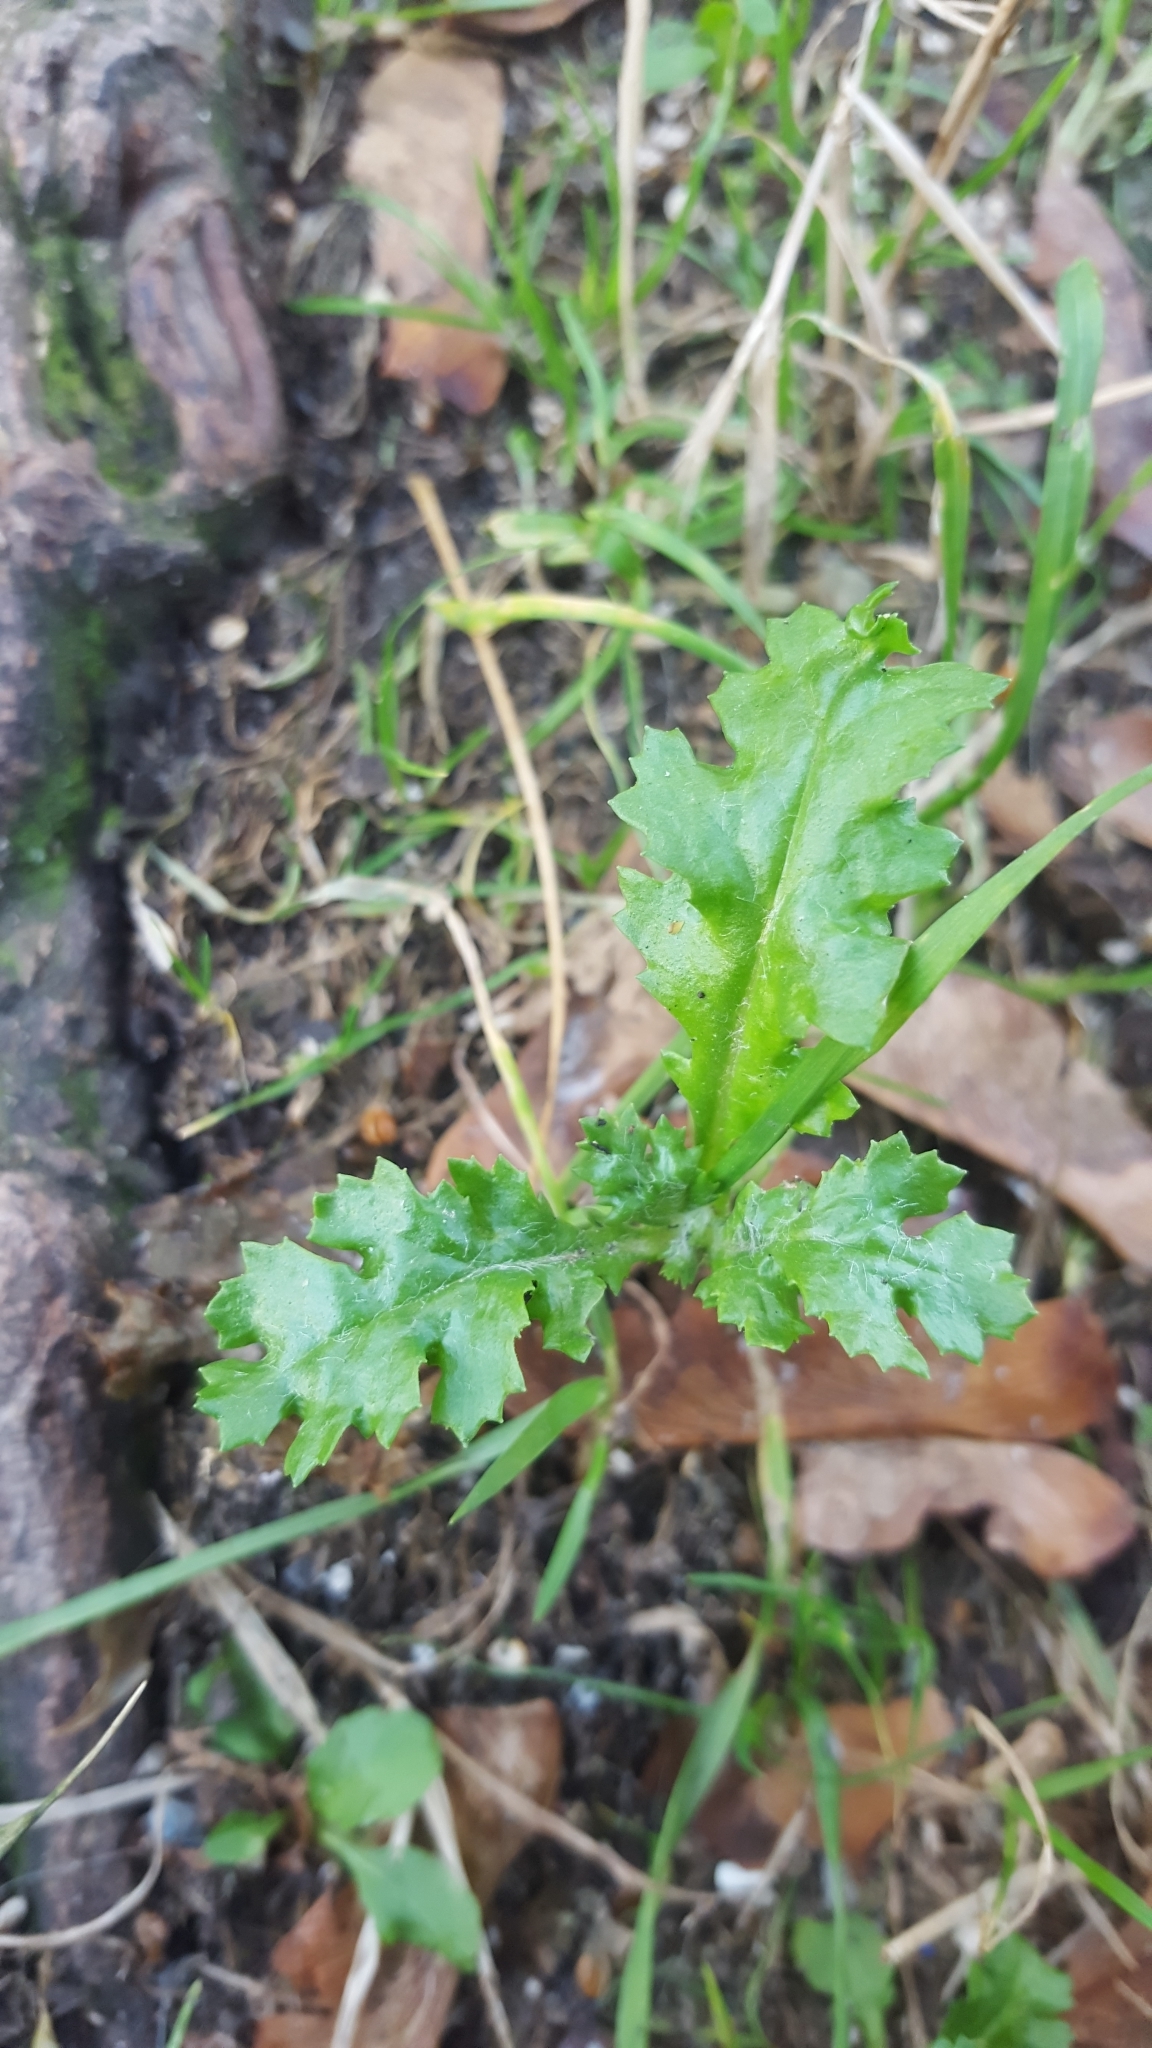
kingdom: Plantae
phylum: Tracheophyta
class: Magnoliopsida
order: Asterales
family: Asteraceae
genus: Senecio
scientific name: Senecio vulgaris
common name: Old-man-in-the-spring
